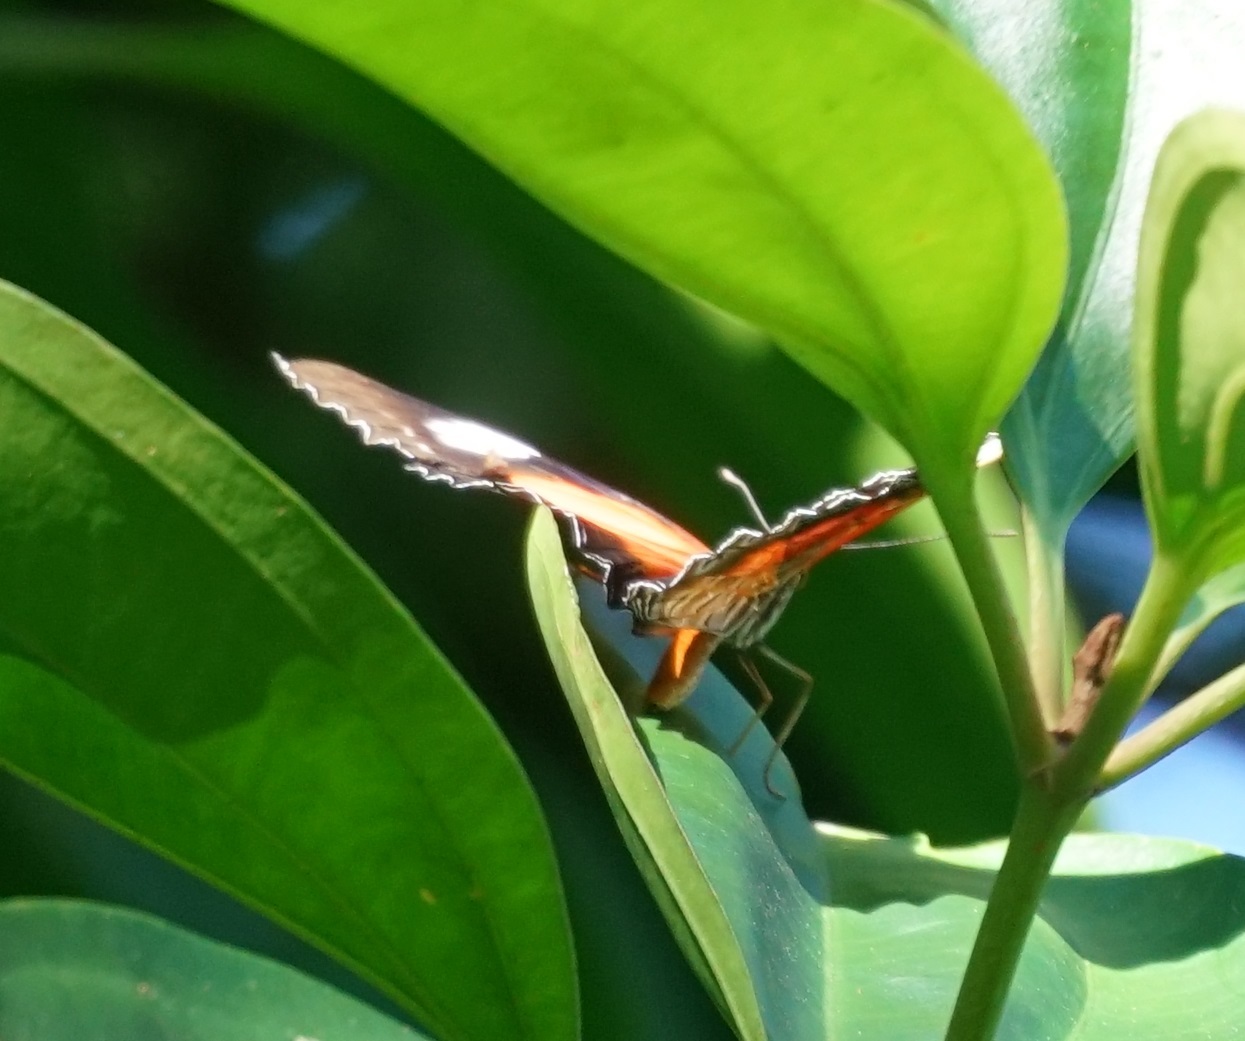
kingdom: Animalia
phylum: Arthropoda
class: Insecta
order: Lepidoptera
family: Nymphalidae
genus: Cethosia
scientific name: Cethosia cydippe
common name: Eastern red lacewing butterfly
